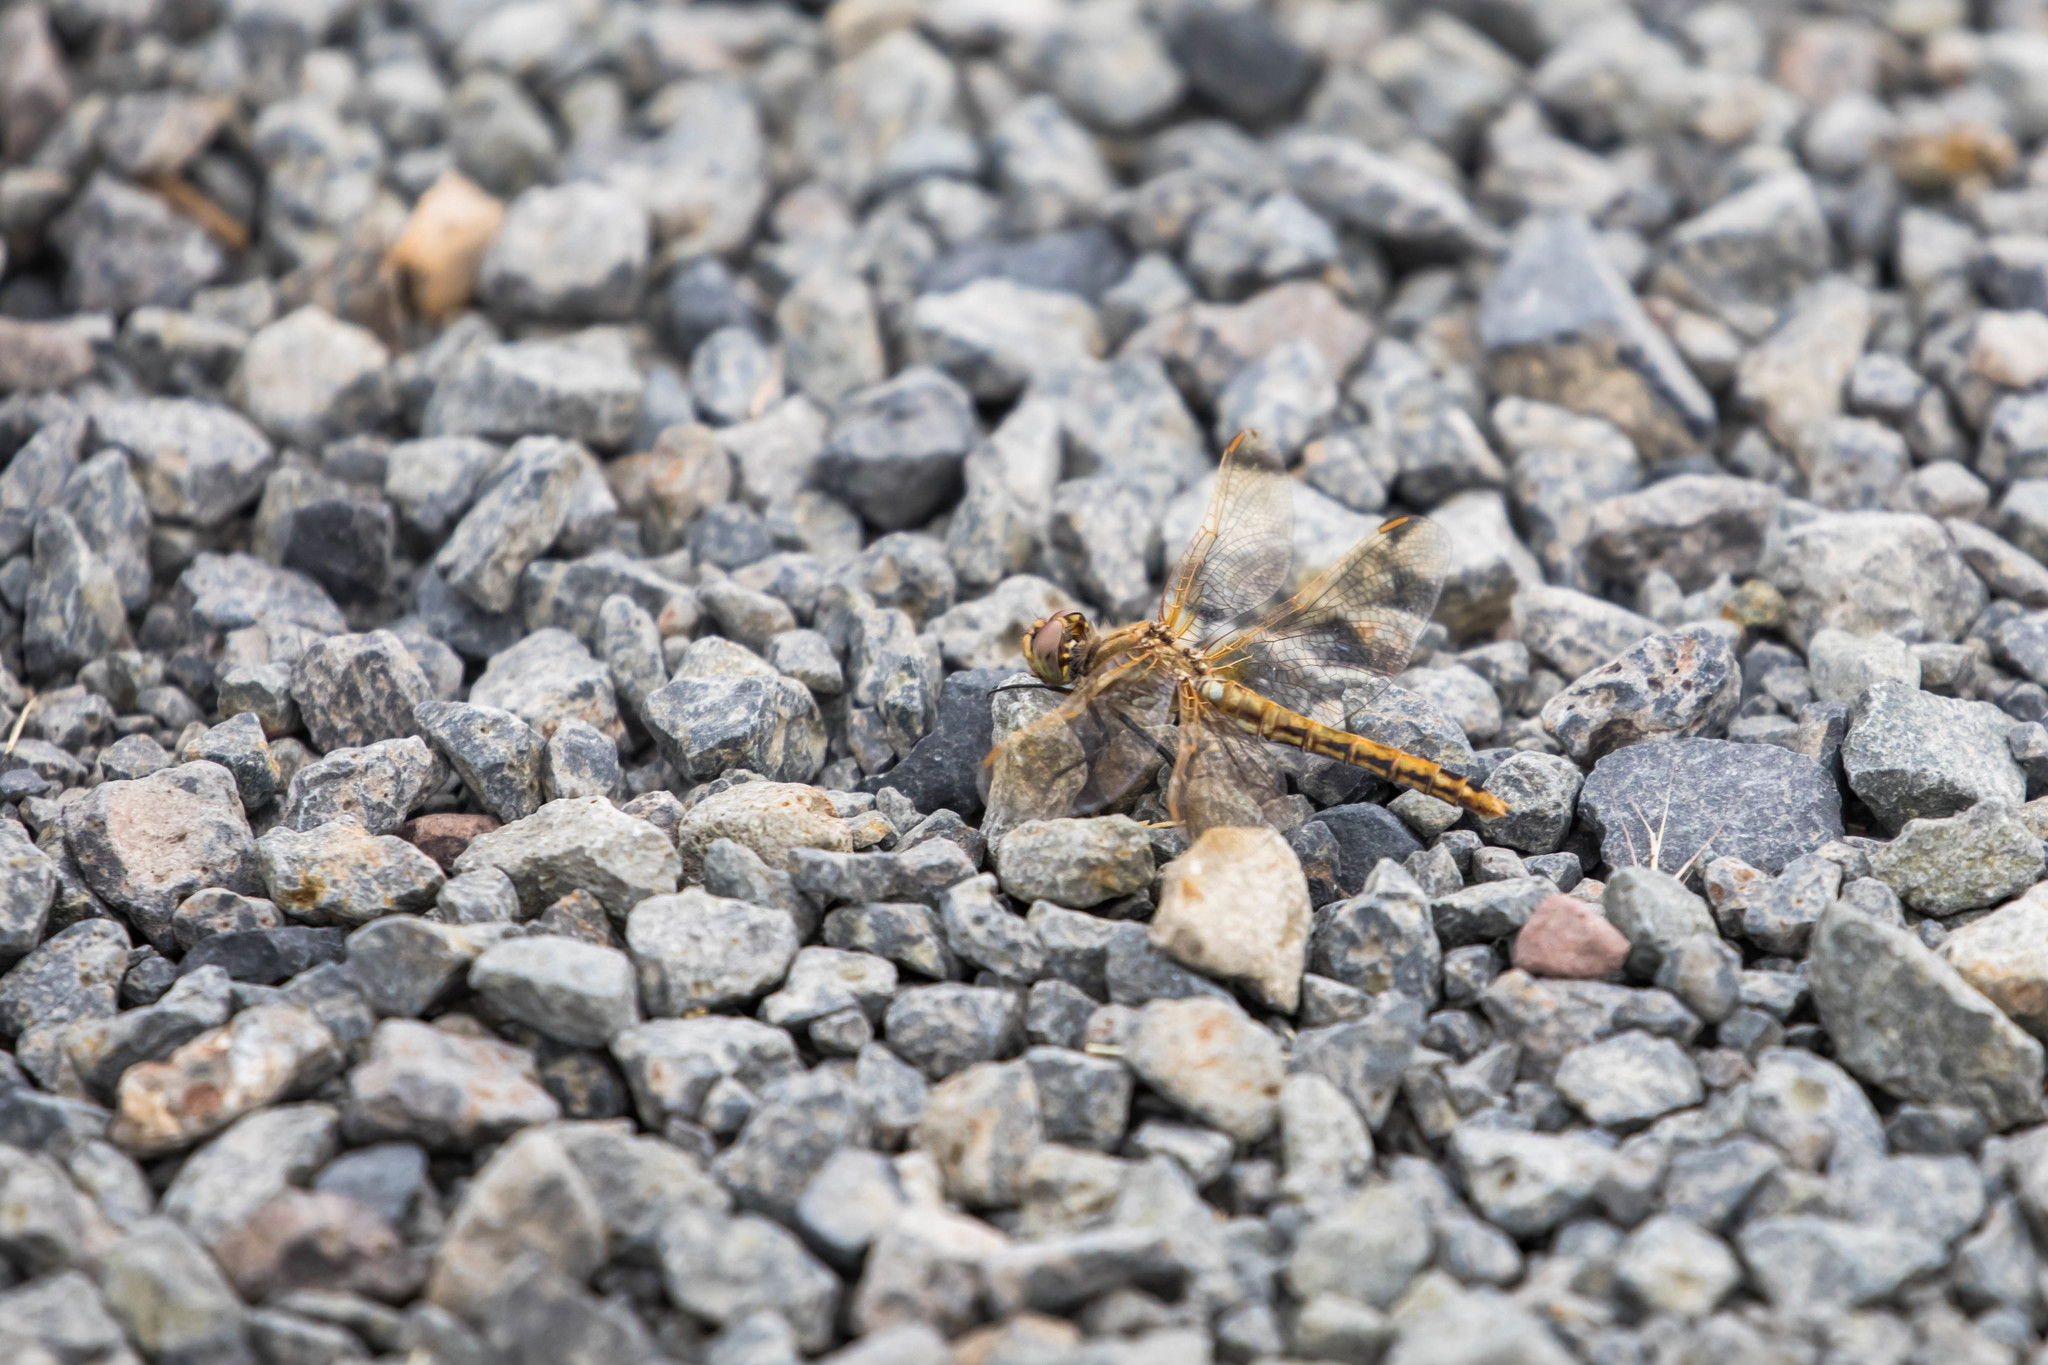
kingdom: Animalia
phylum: Arthropoda
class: Insecta
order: Odonata
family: Libellulidae
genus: Sympetrum
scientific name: Sympetrum madidum
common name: Red-veined meadowhawk
